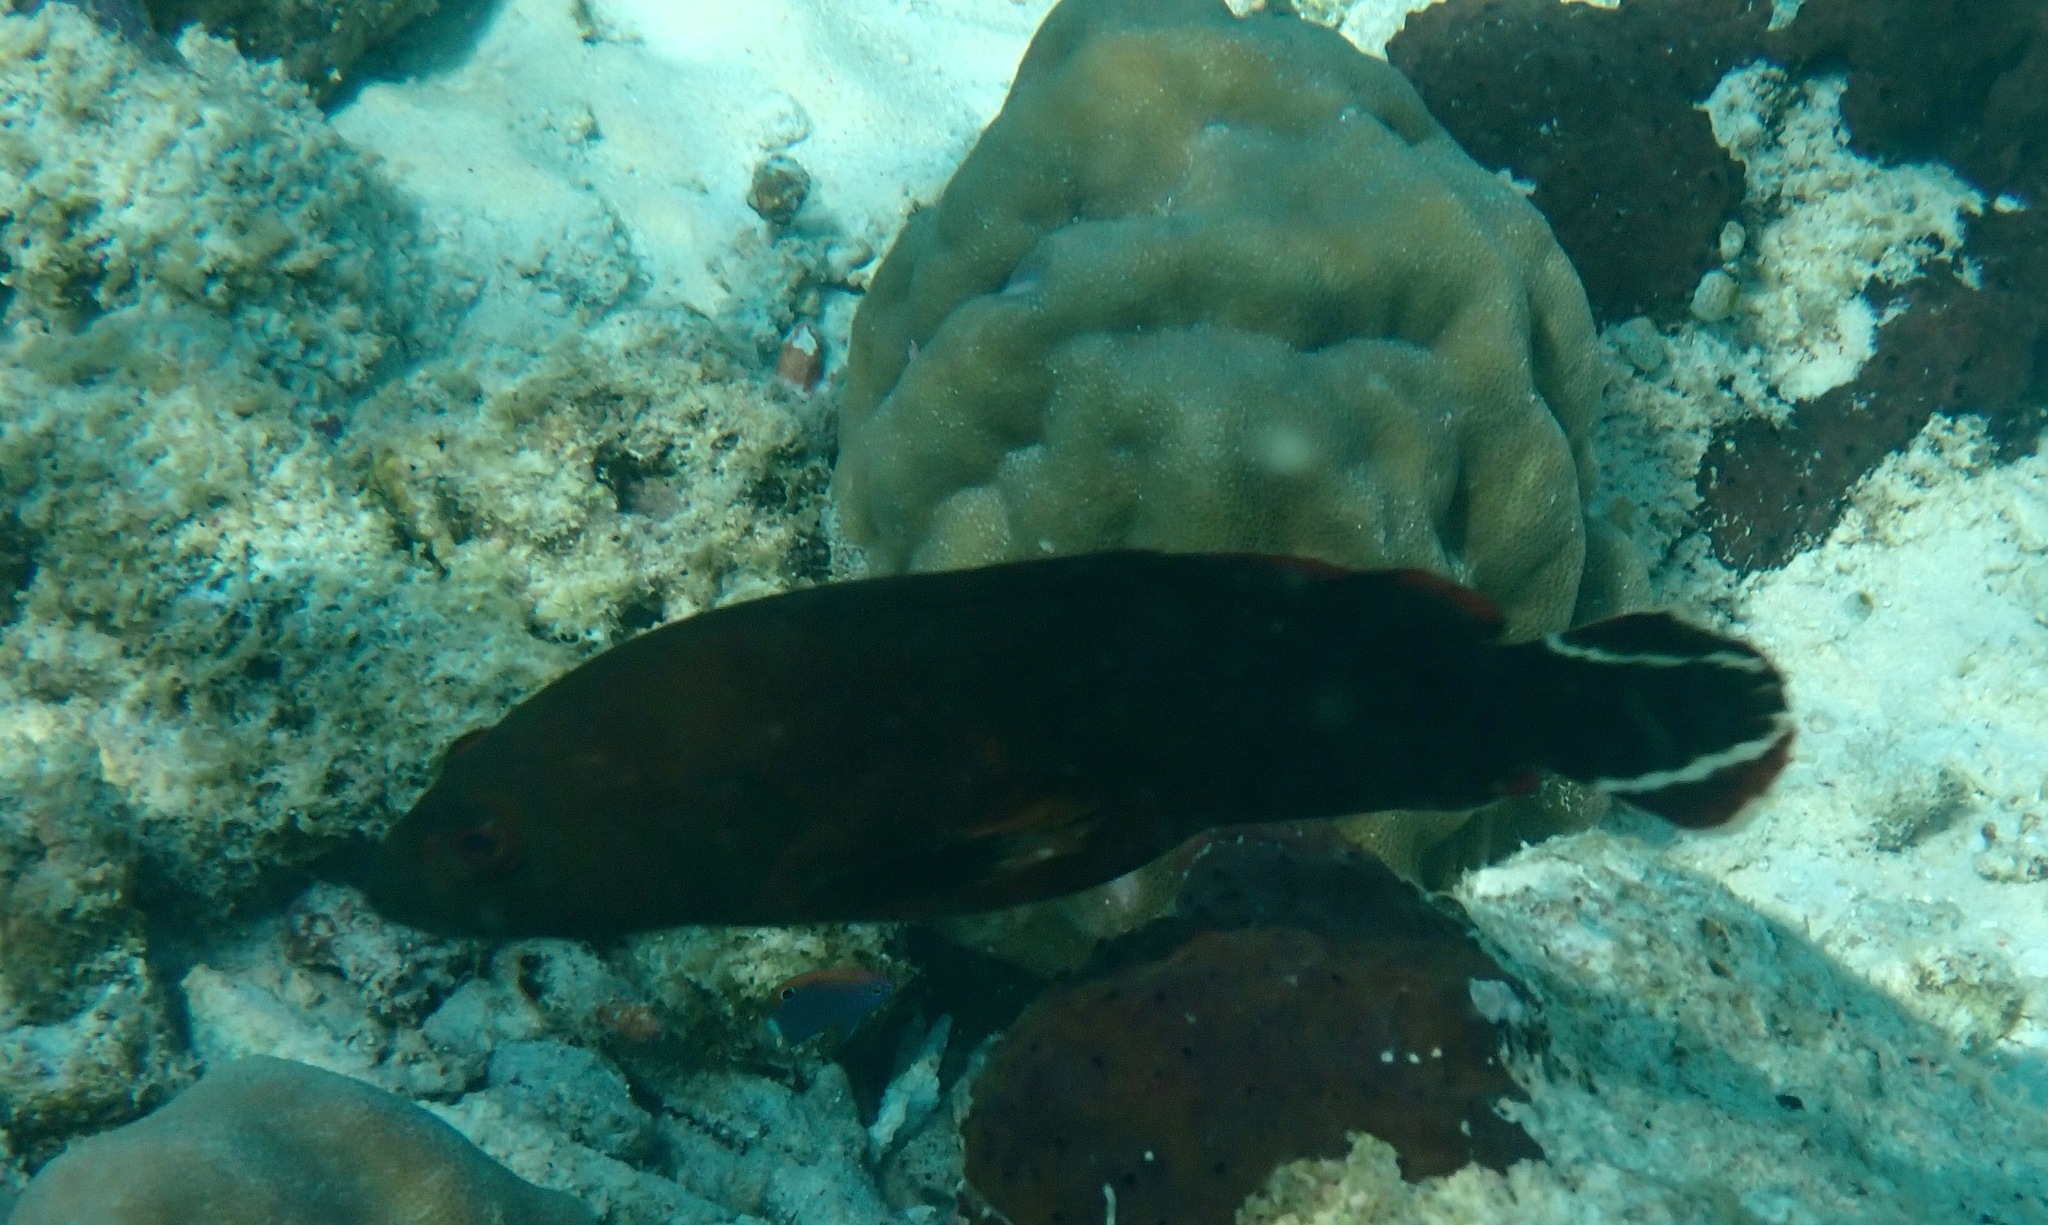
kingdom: Animalia
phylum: Chordata
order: Perciformes
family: Serranidae
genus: Cephalopholis
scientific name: Cephalopholis urodeta
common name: Darkfin hind
